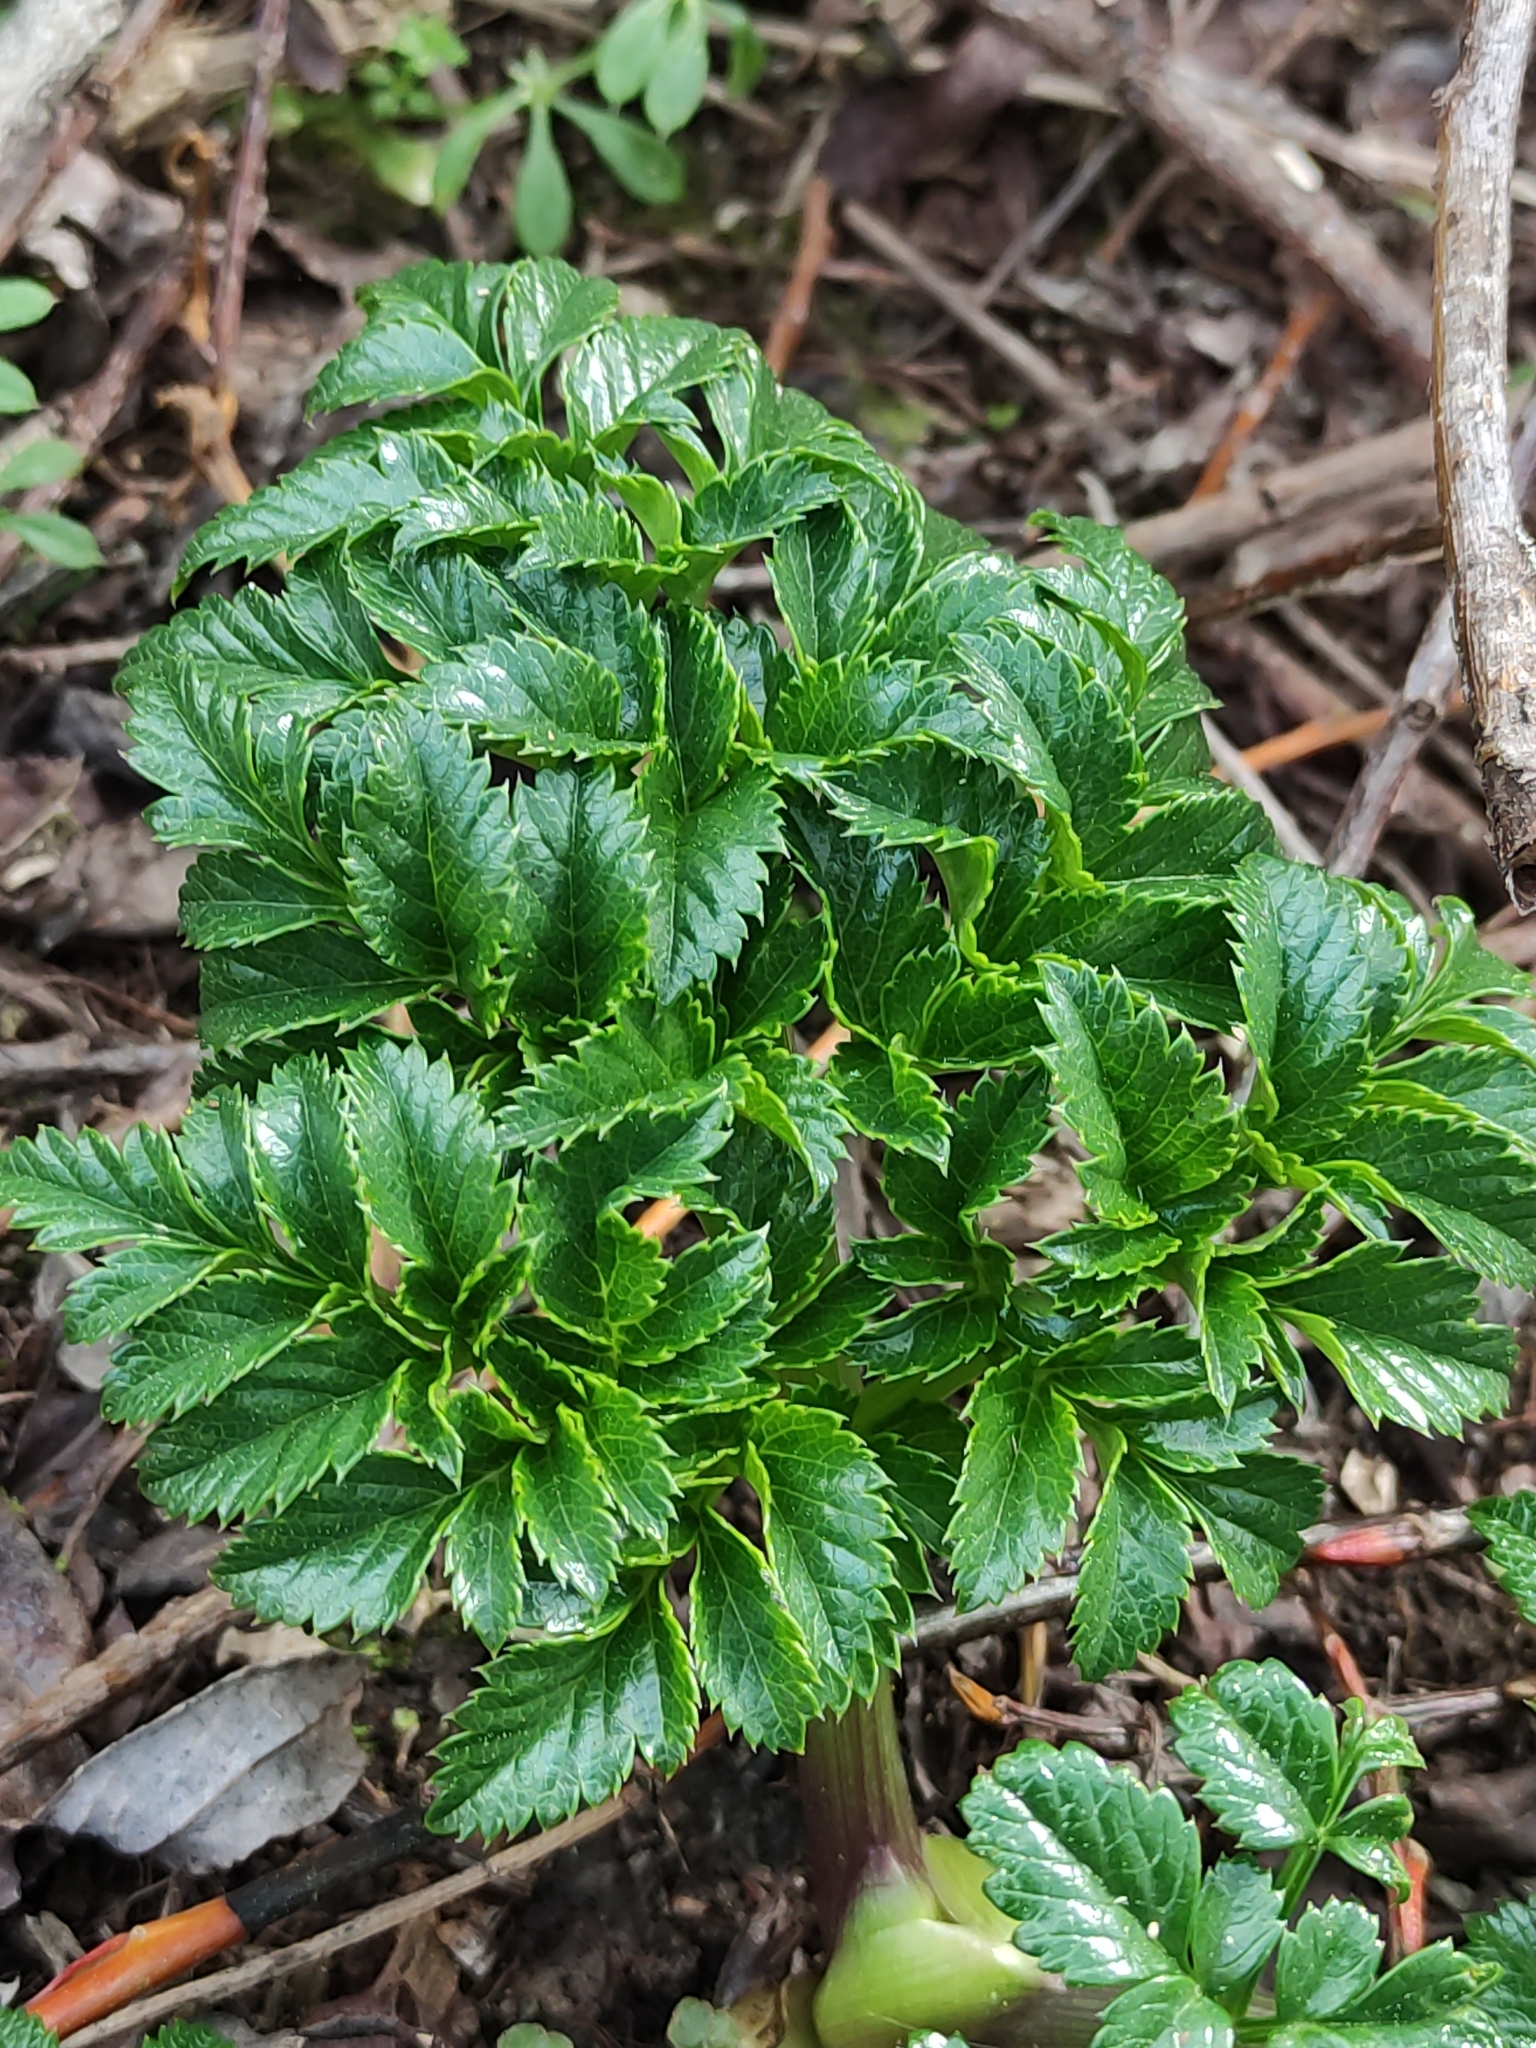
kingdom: Plantae
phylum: Tracheophyta
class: Magnoliopsida
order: Apiales
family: Apiaceae
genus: Angelica
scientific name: Angelica pachycarpa
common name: Portuguese angelica
